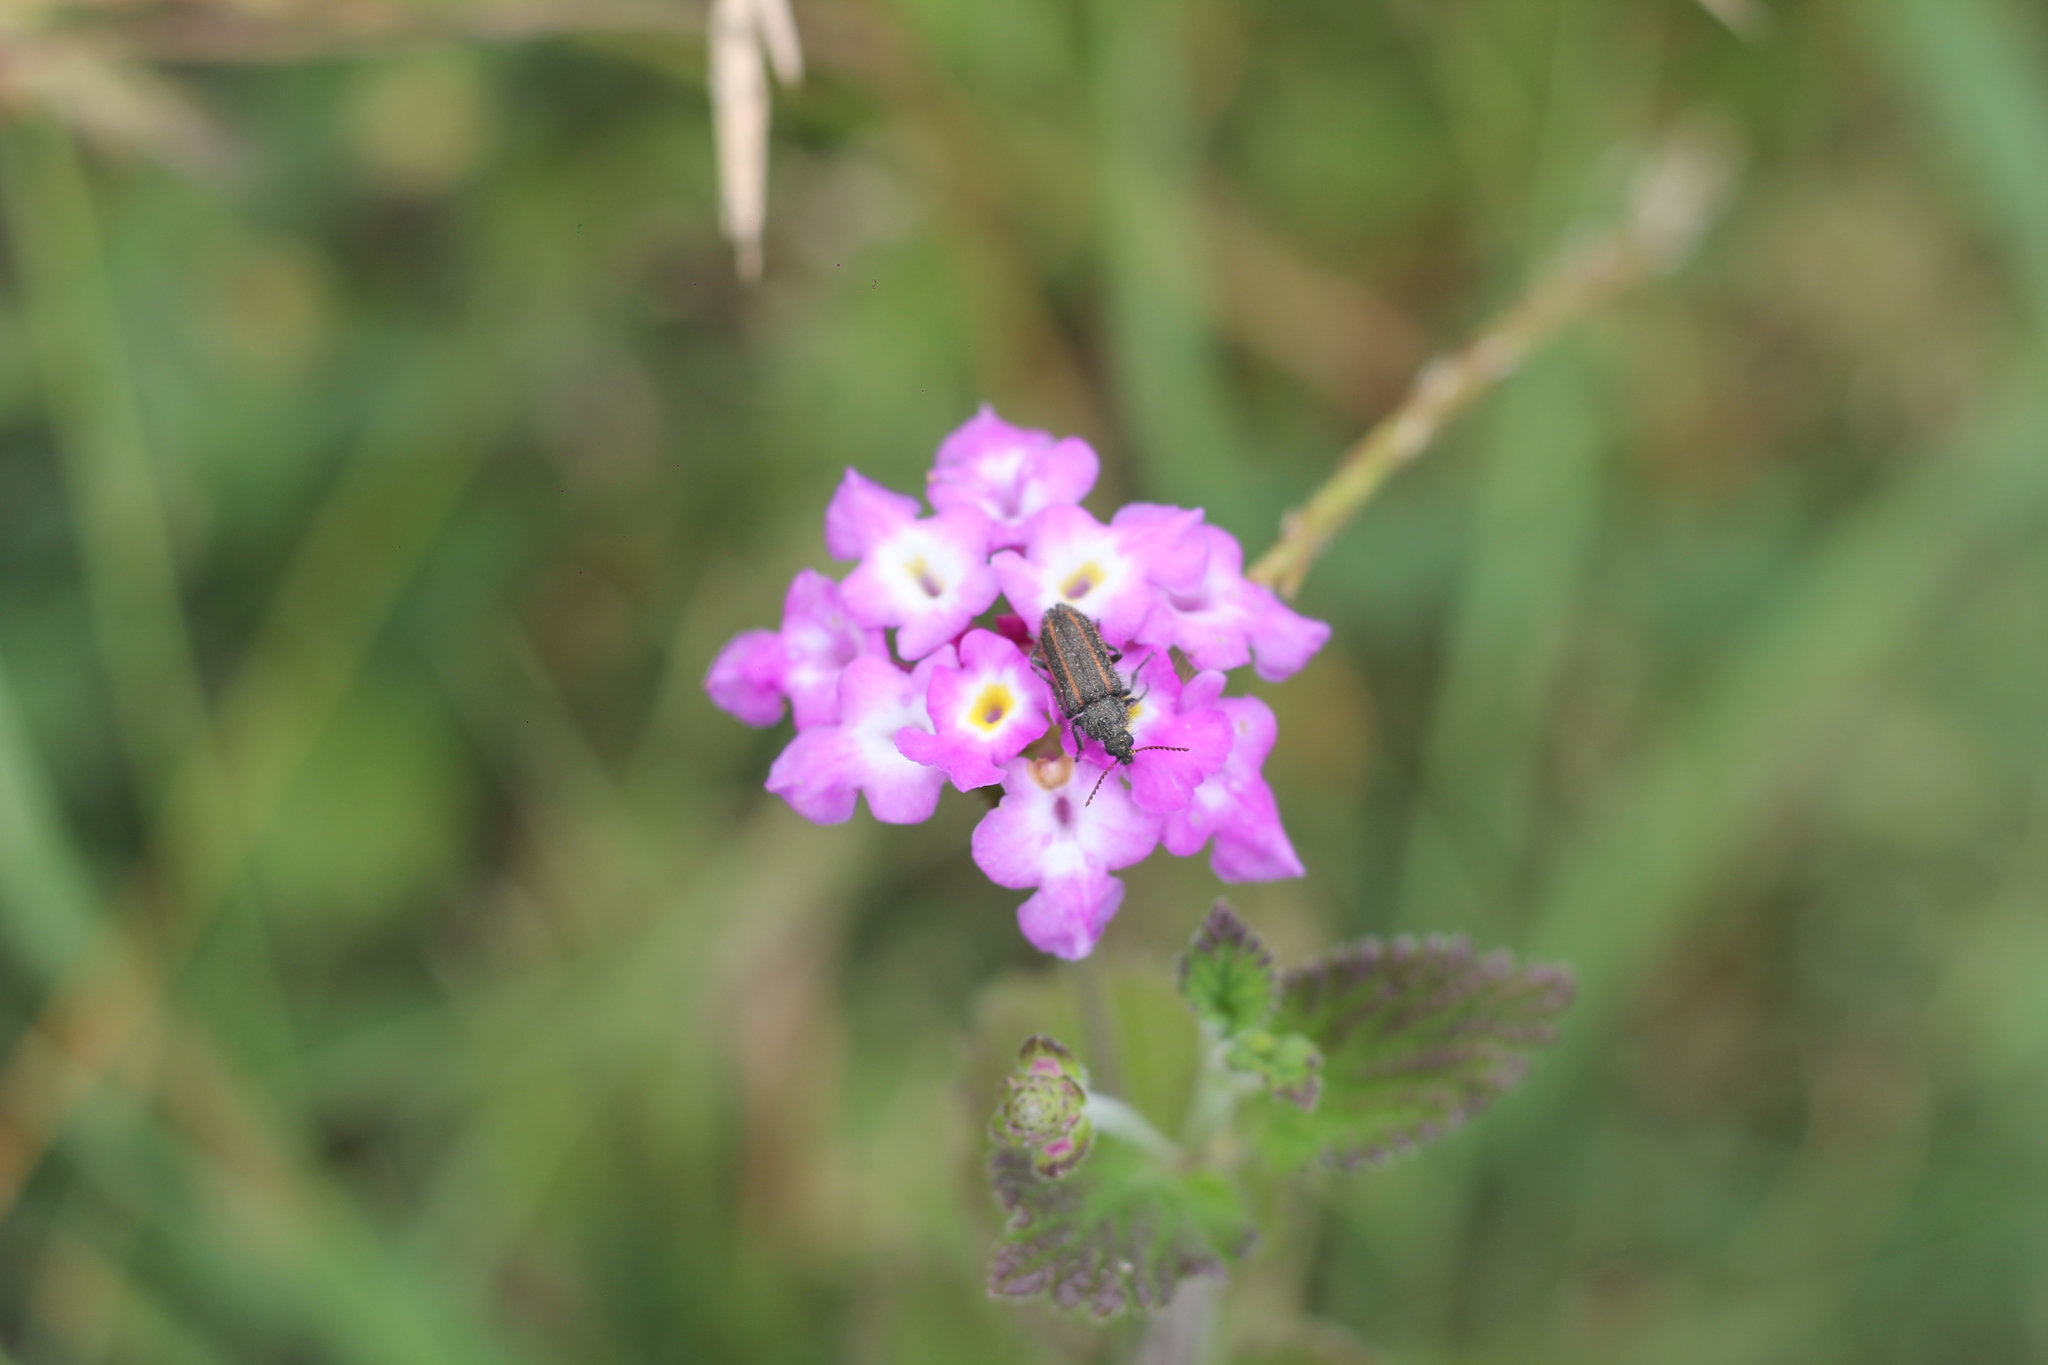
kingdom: Animalia
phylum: Arthropoda
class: Insecta
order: Coleoptera
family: Melyridae
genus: Astylus
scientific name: Astylus
